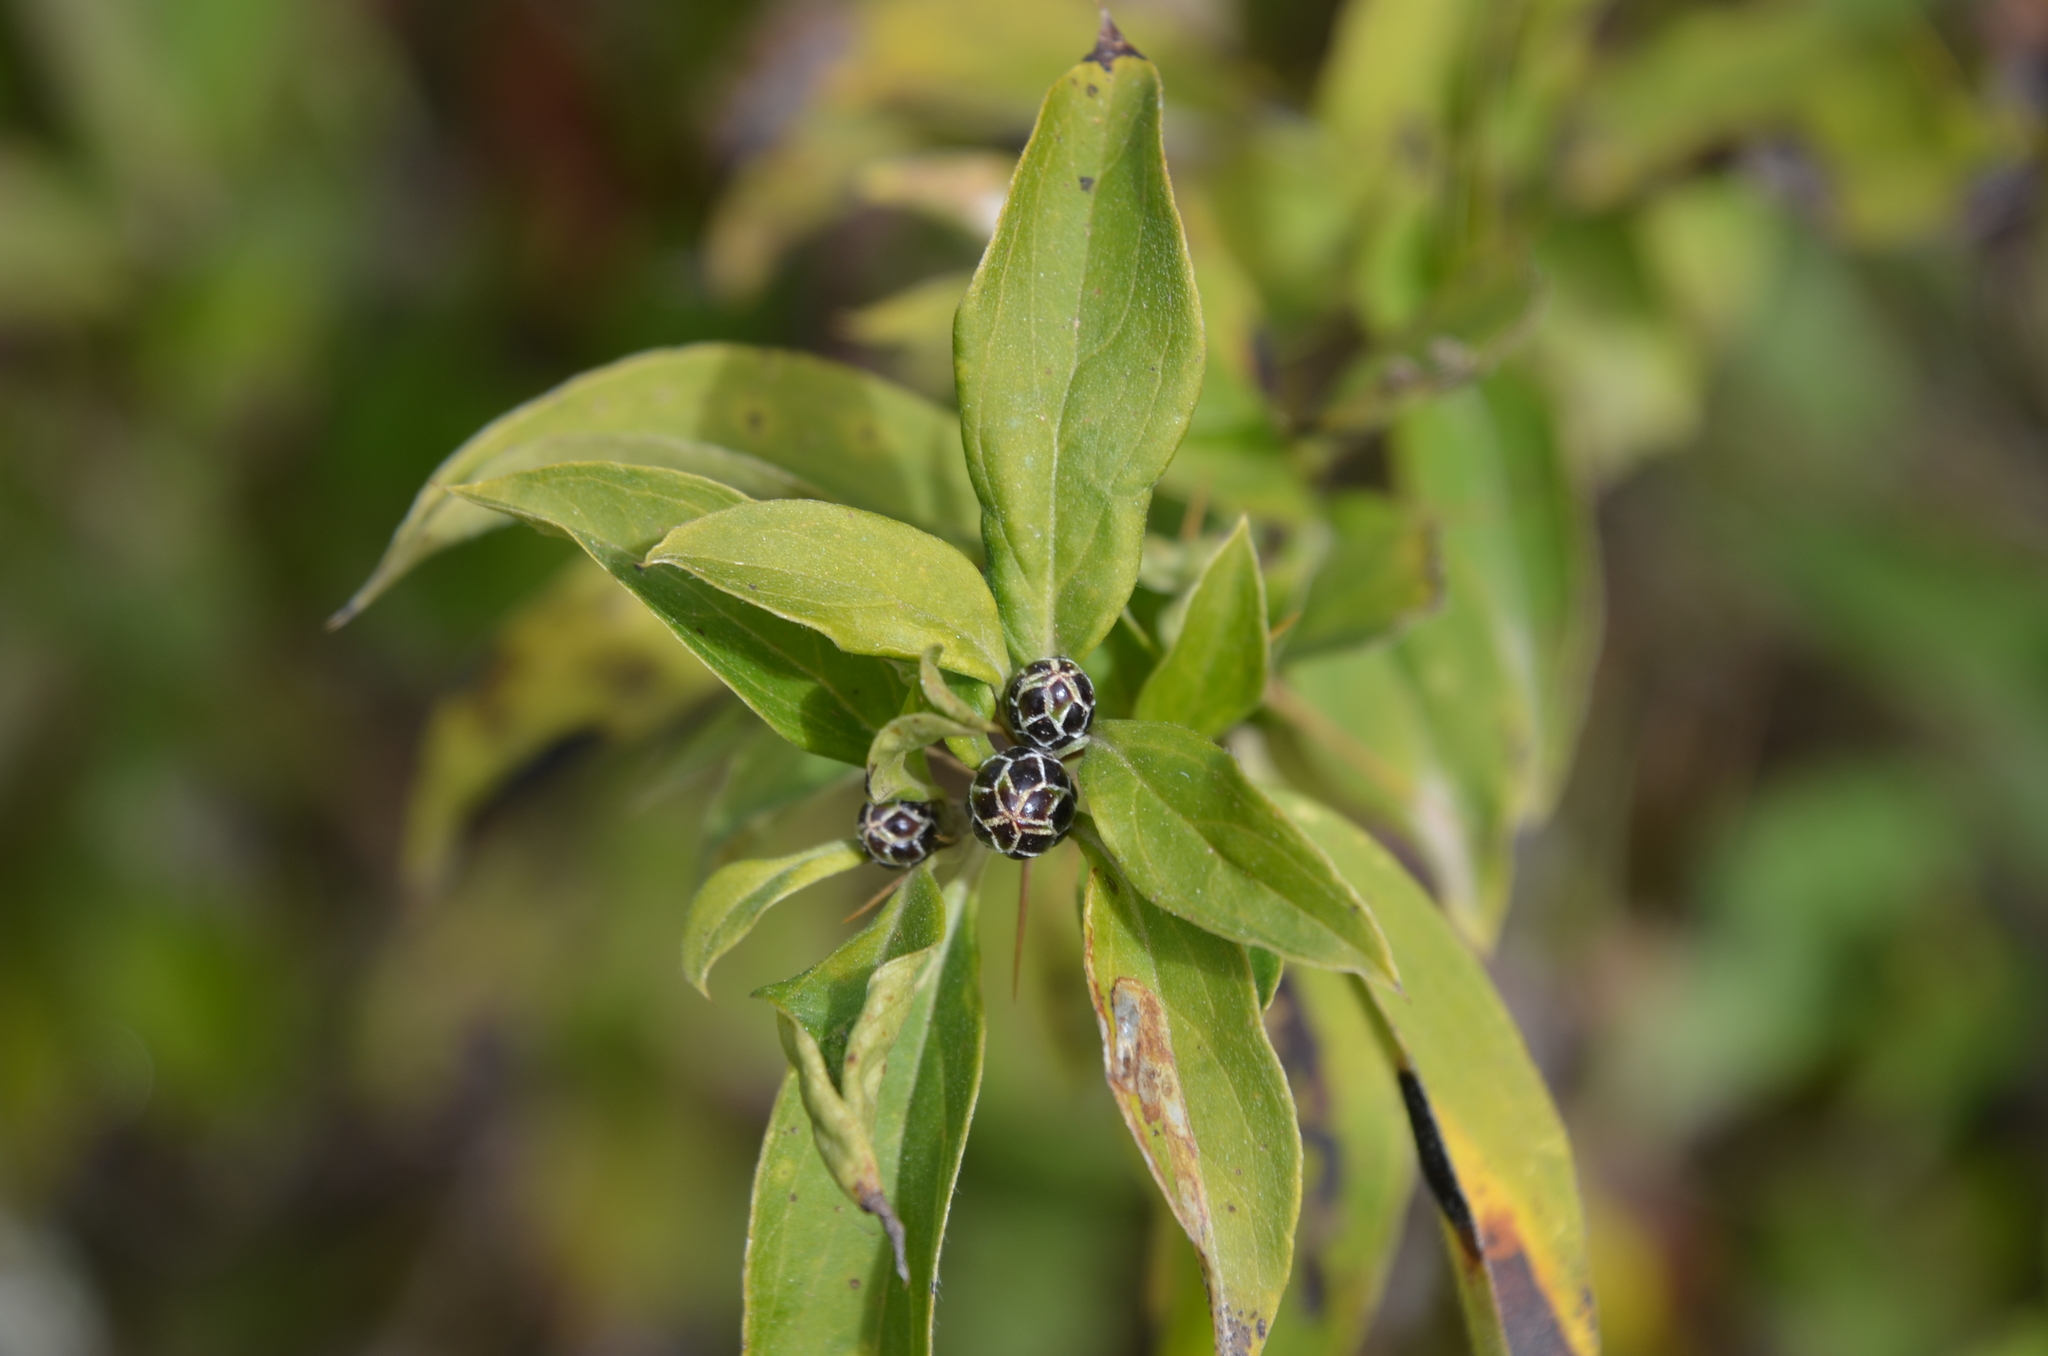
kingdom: Plantae
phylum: Tracheophyta
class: Magnoliopsida
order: Asterales
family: Asteraceae
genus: Barnadesia
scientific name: Barnadesia odorata
